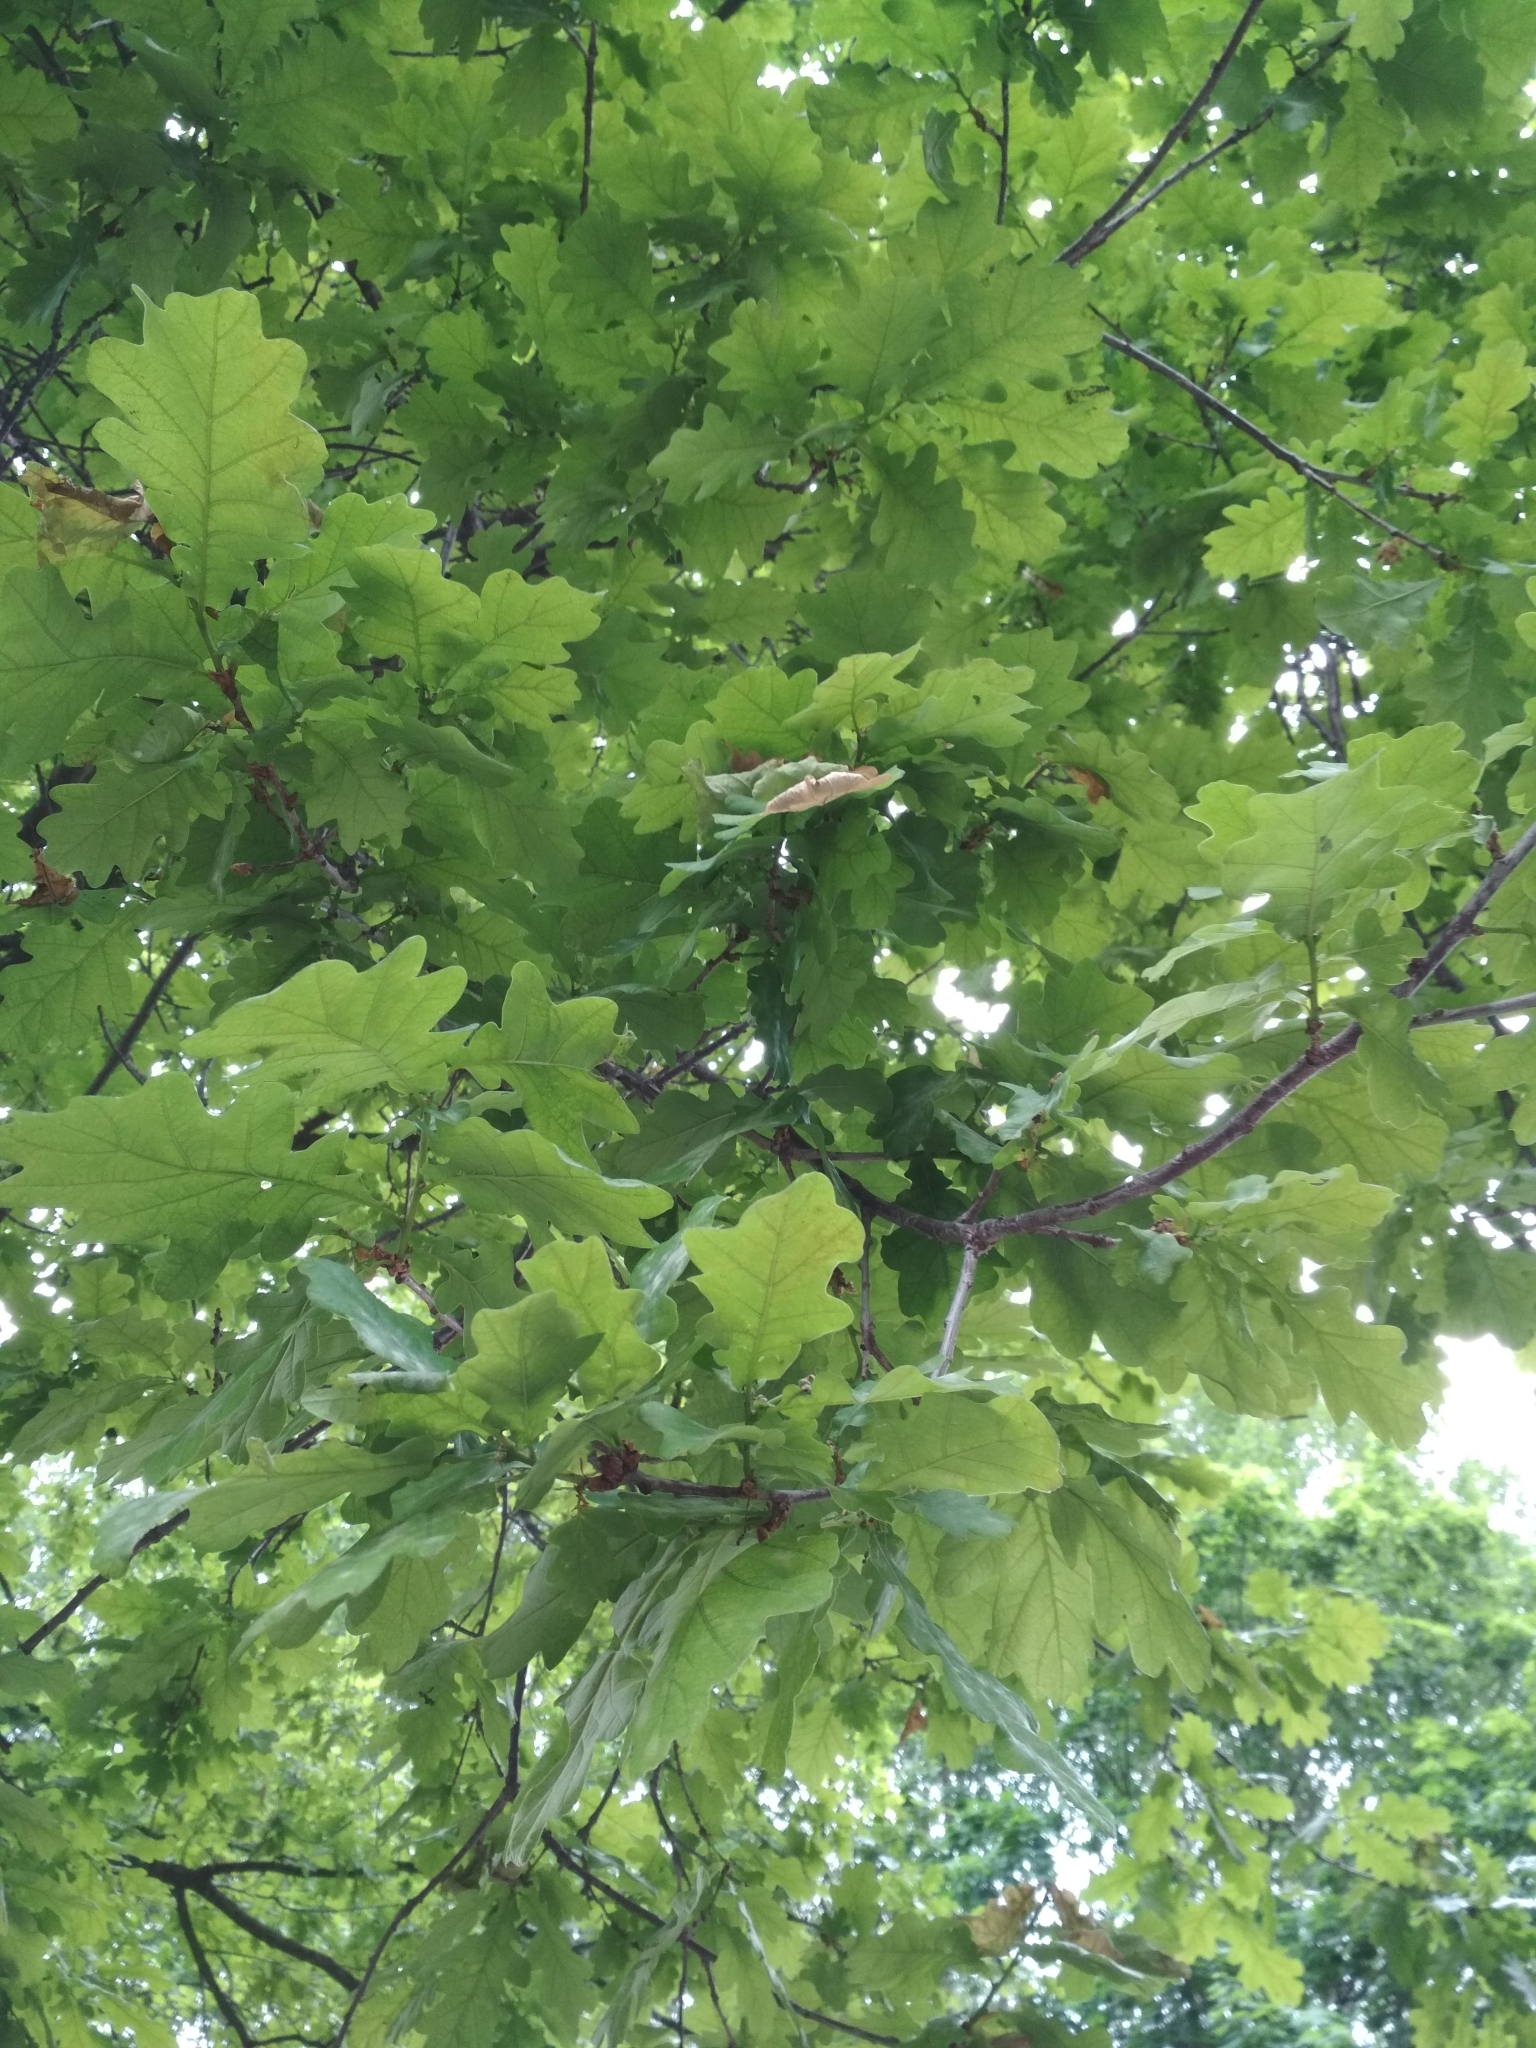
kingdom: Plantae
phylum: Tracheophyta
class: Magnoliopsida
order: Fagales
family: Fagaceae
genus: Quercus
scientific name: Quercus robur
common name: Pedunculate oak
